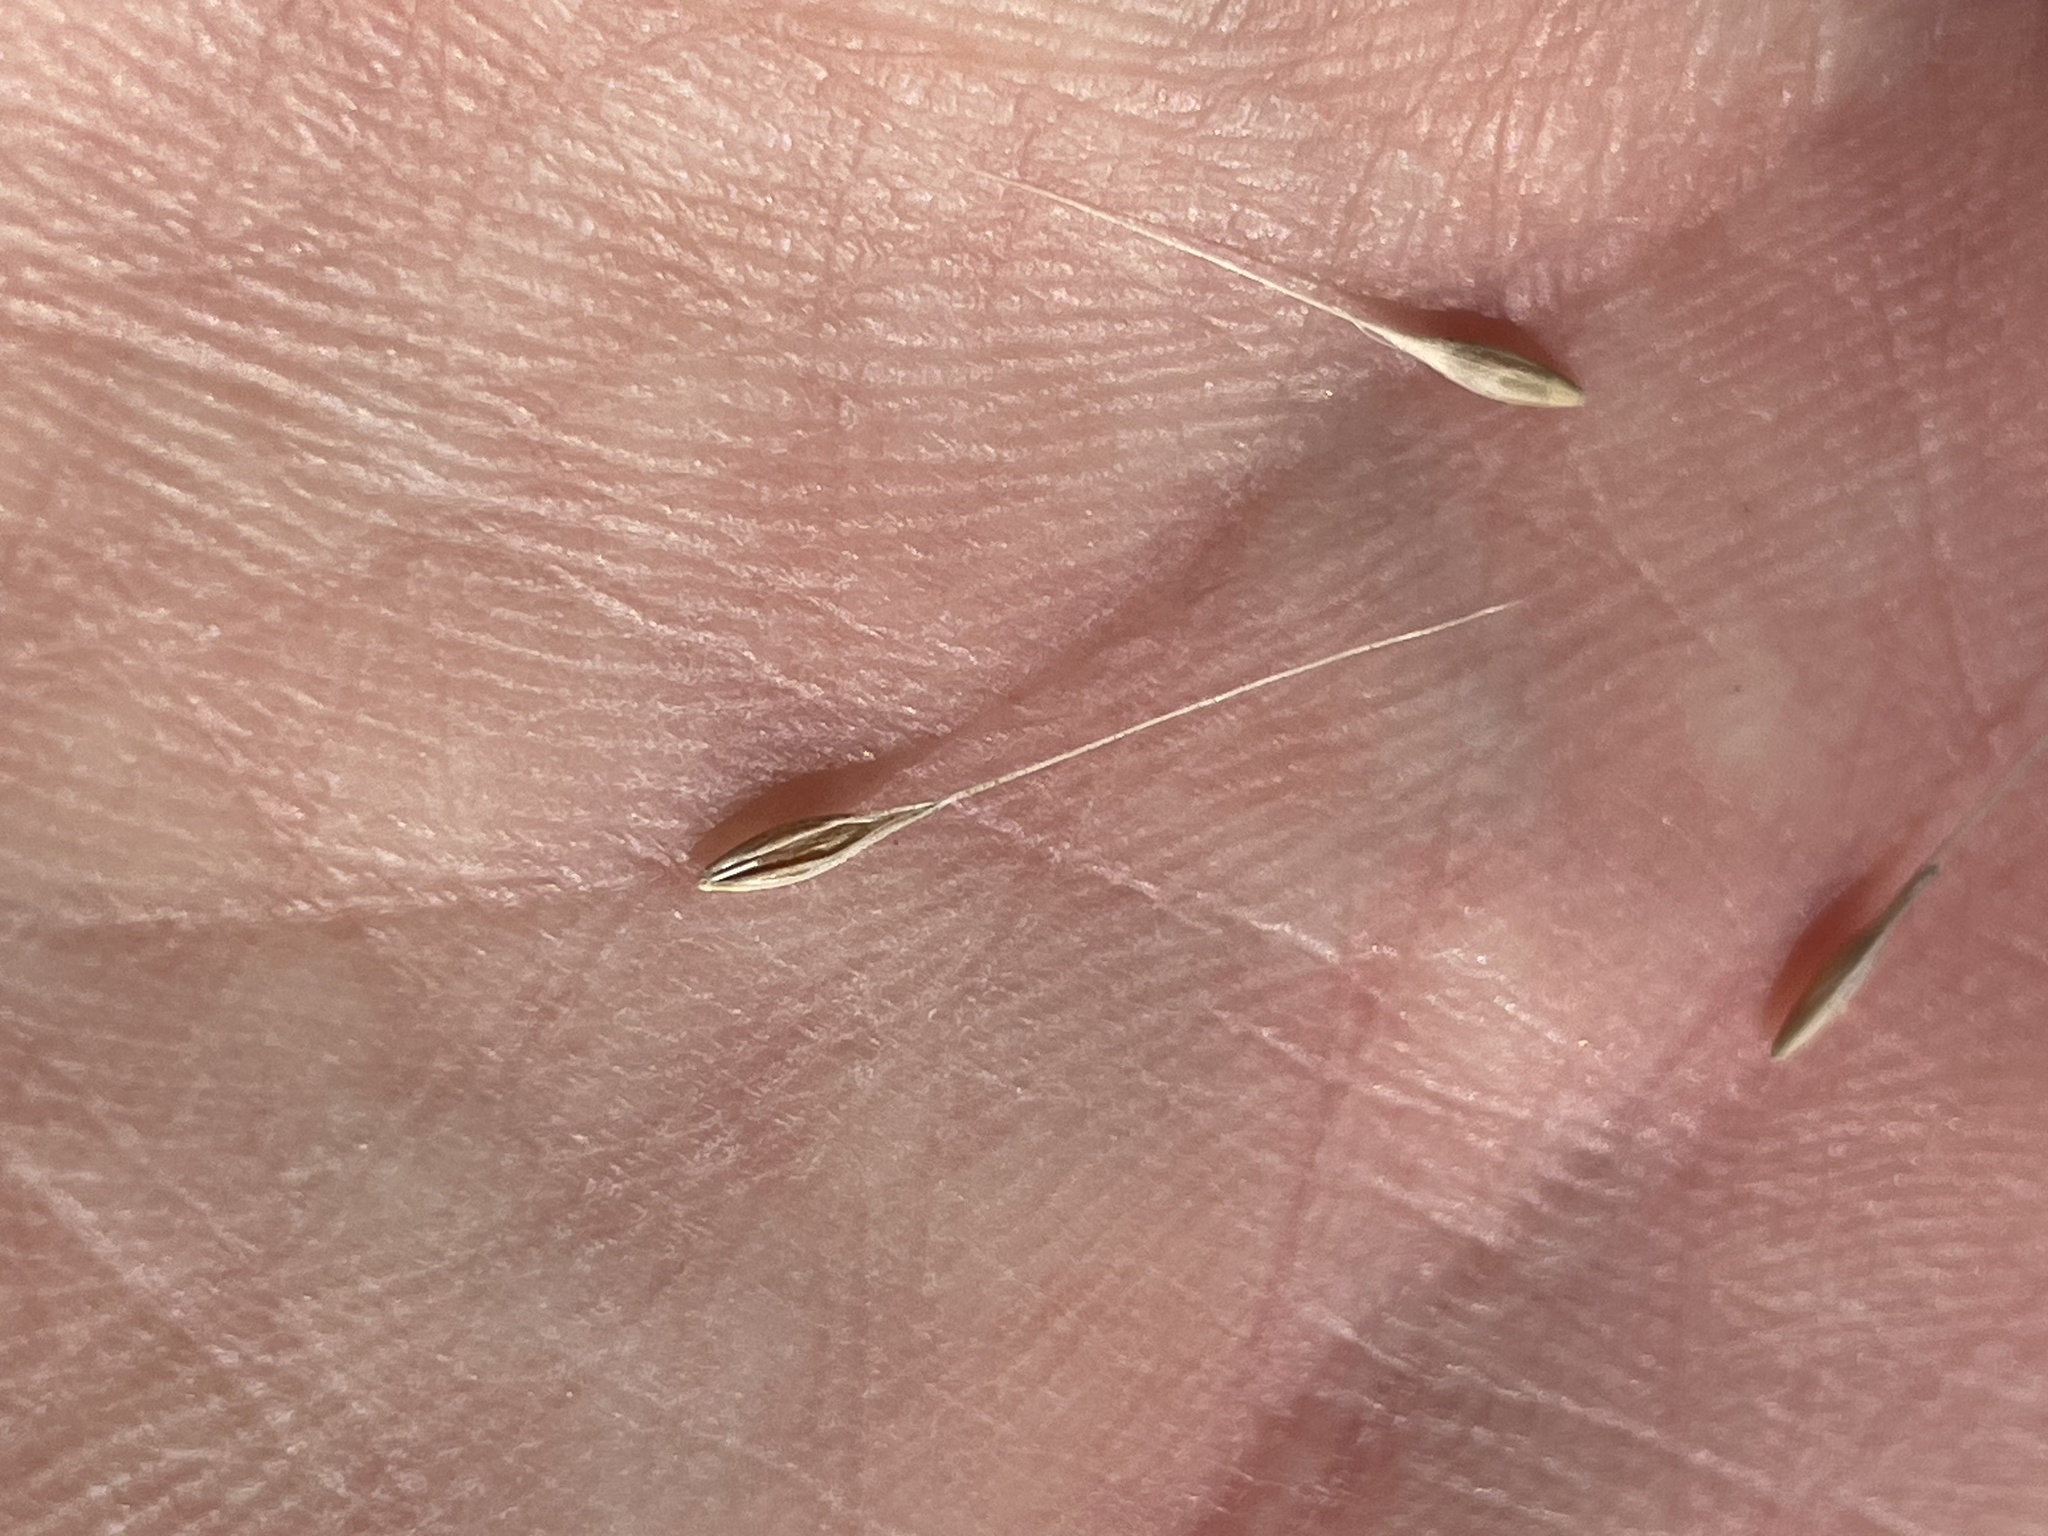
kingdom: Plantae
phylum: Tracheophyta
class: Liliopsida
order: Poales
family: Poaceae
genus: Cynosurus
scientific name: Cynosurus echinatus
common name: Rough dog's-tail
